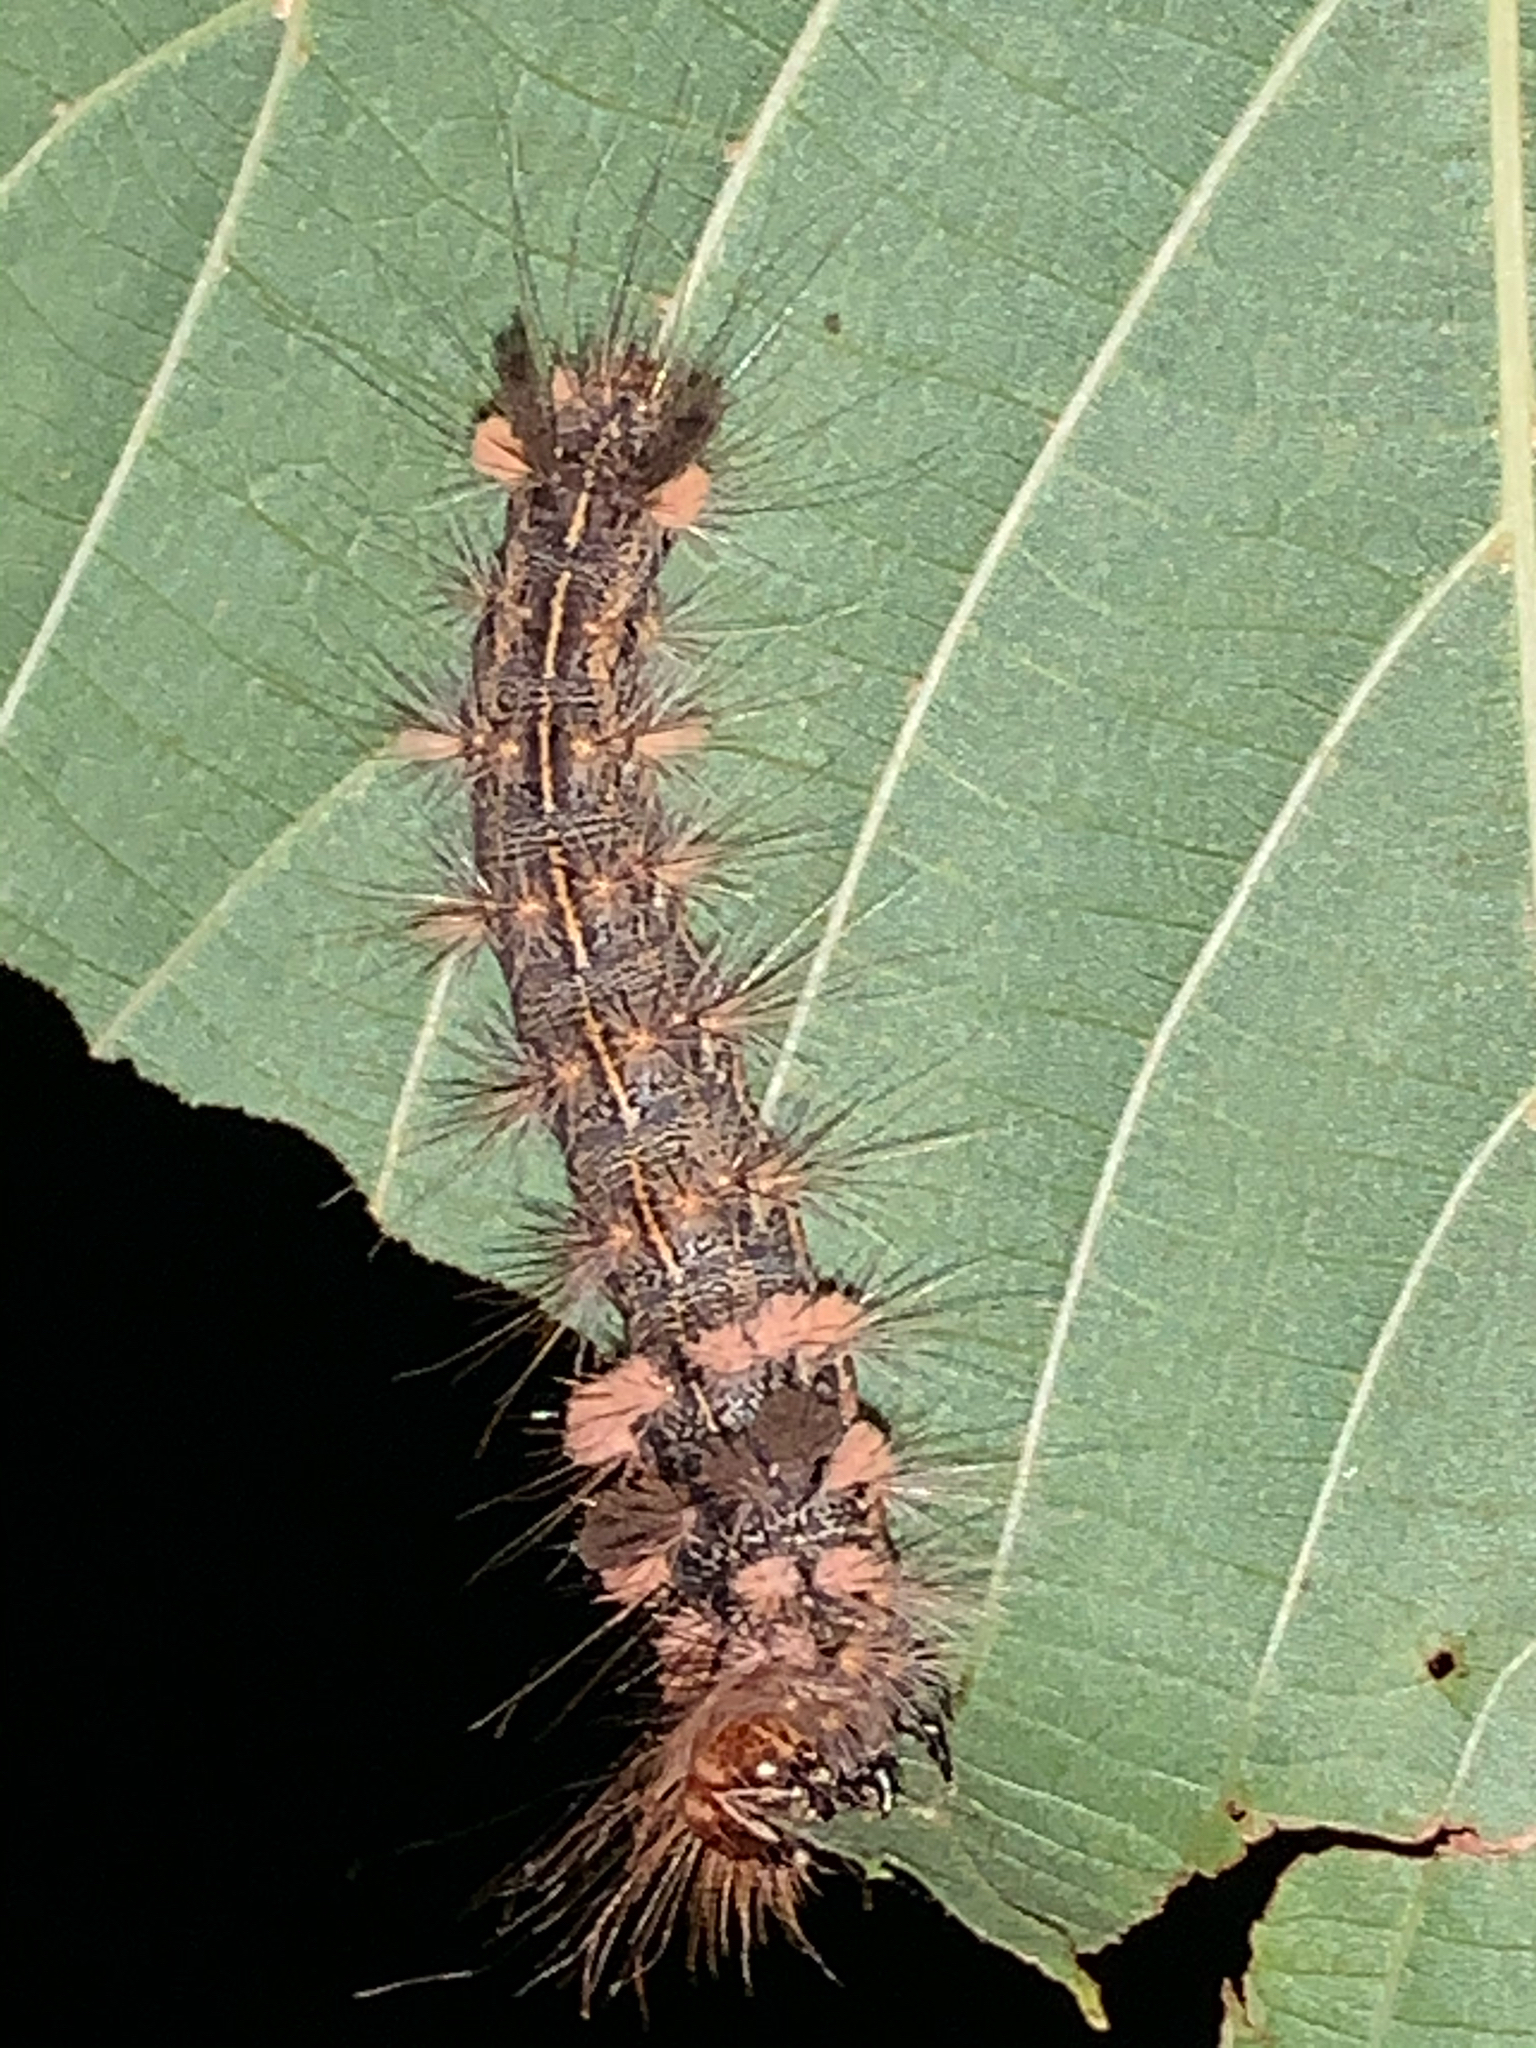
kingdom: Animalia
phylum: Arthropoda
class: Insecta
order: Lepidoptera
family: Noctuidae
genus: Acronicta
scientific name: Acronicta impleta
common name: Powdered dagger
